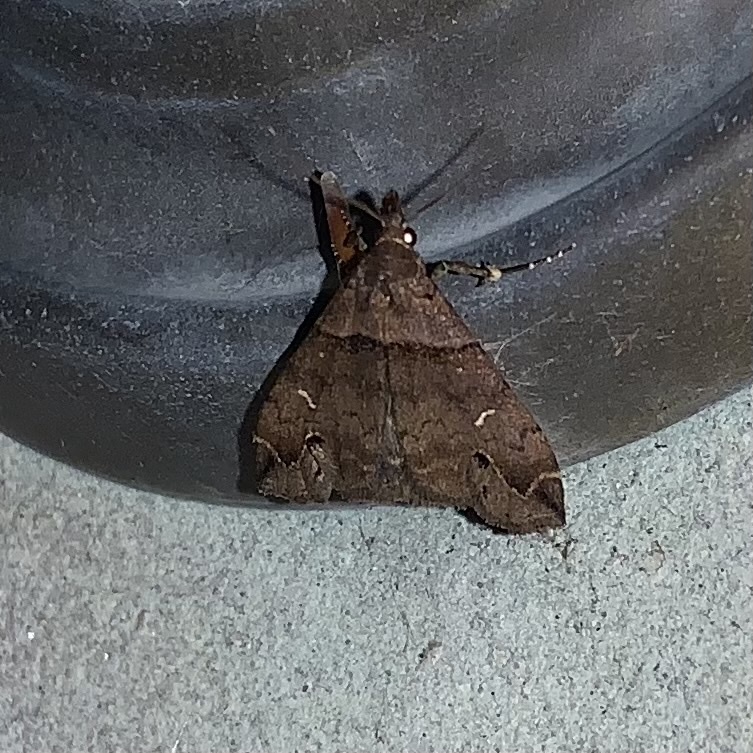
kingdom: Animalia
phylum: Arthropoda
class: Insecta
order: Lepidoptera
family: Erebidae
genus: Lascoria
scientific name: Lascoria ambigualis
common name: Ambiguous moth
